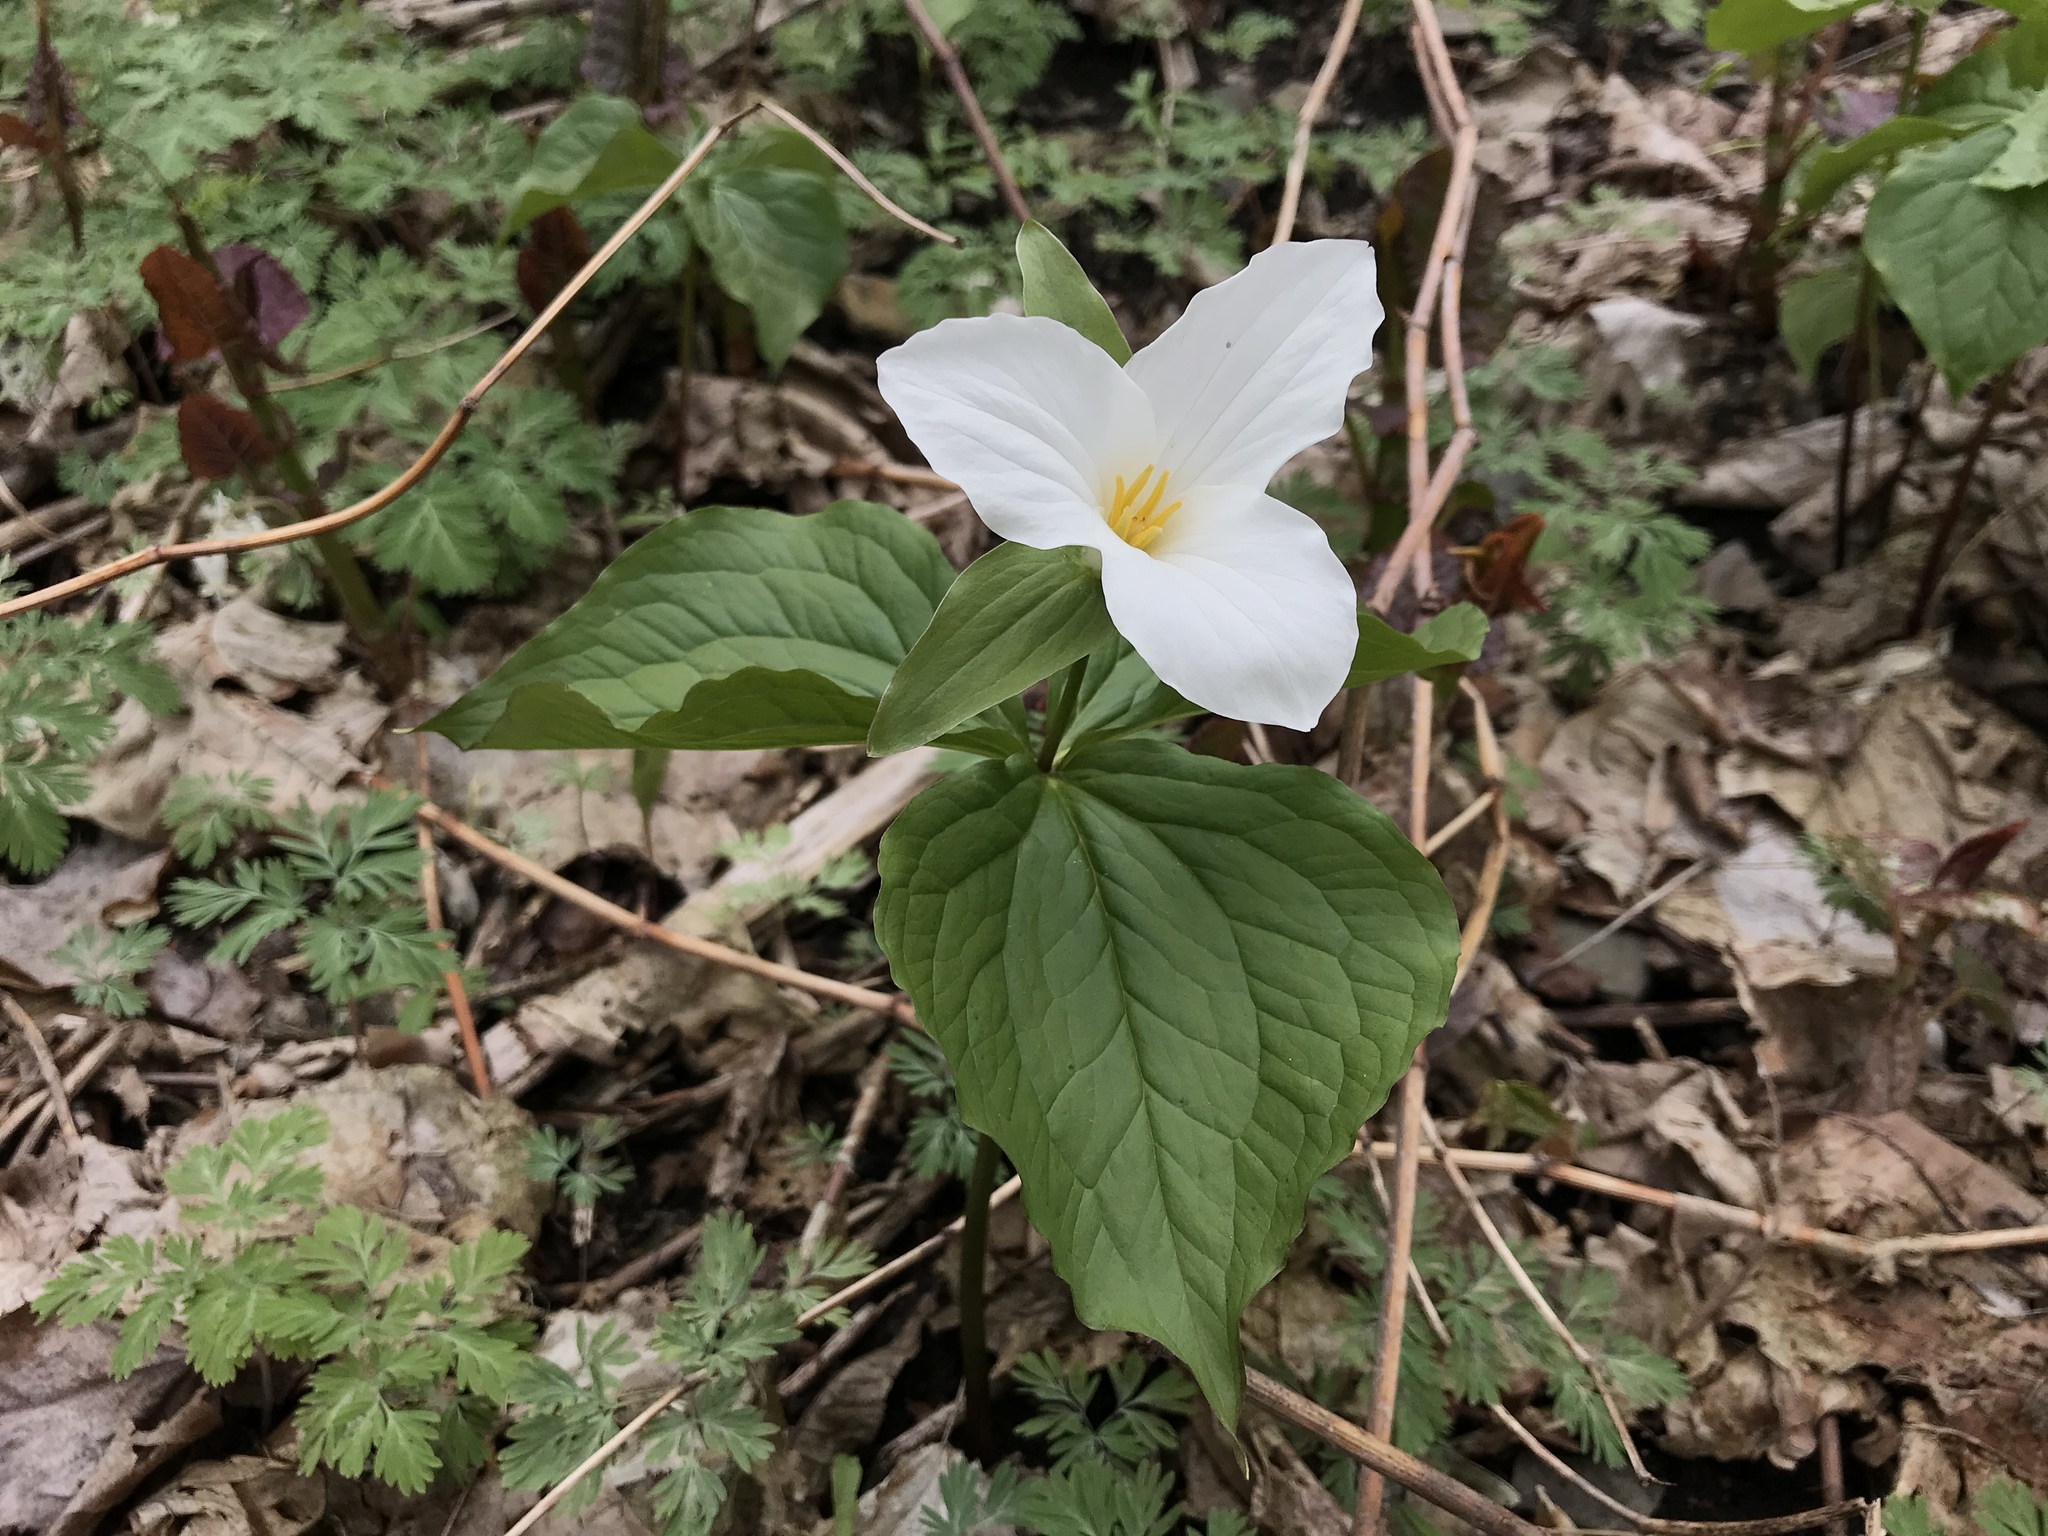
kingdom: Plantae
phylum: Tracheophyta
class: Liliopsida
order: Liliales
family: Melanthiaceae
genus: Trillium
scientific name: Trillium grandiflorum
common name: Great white trillium
